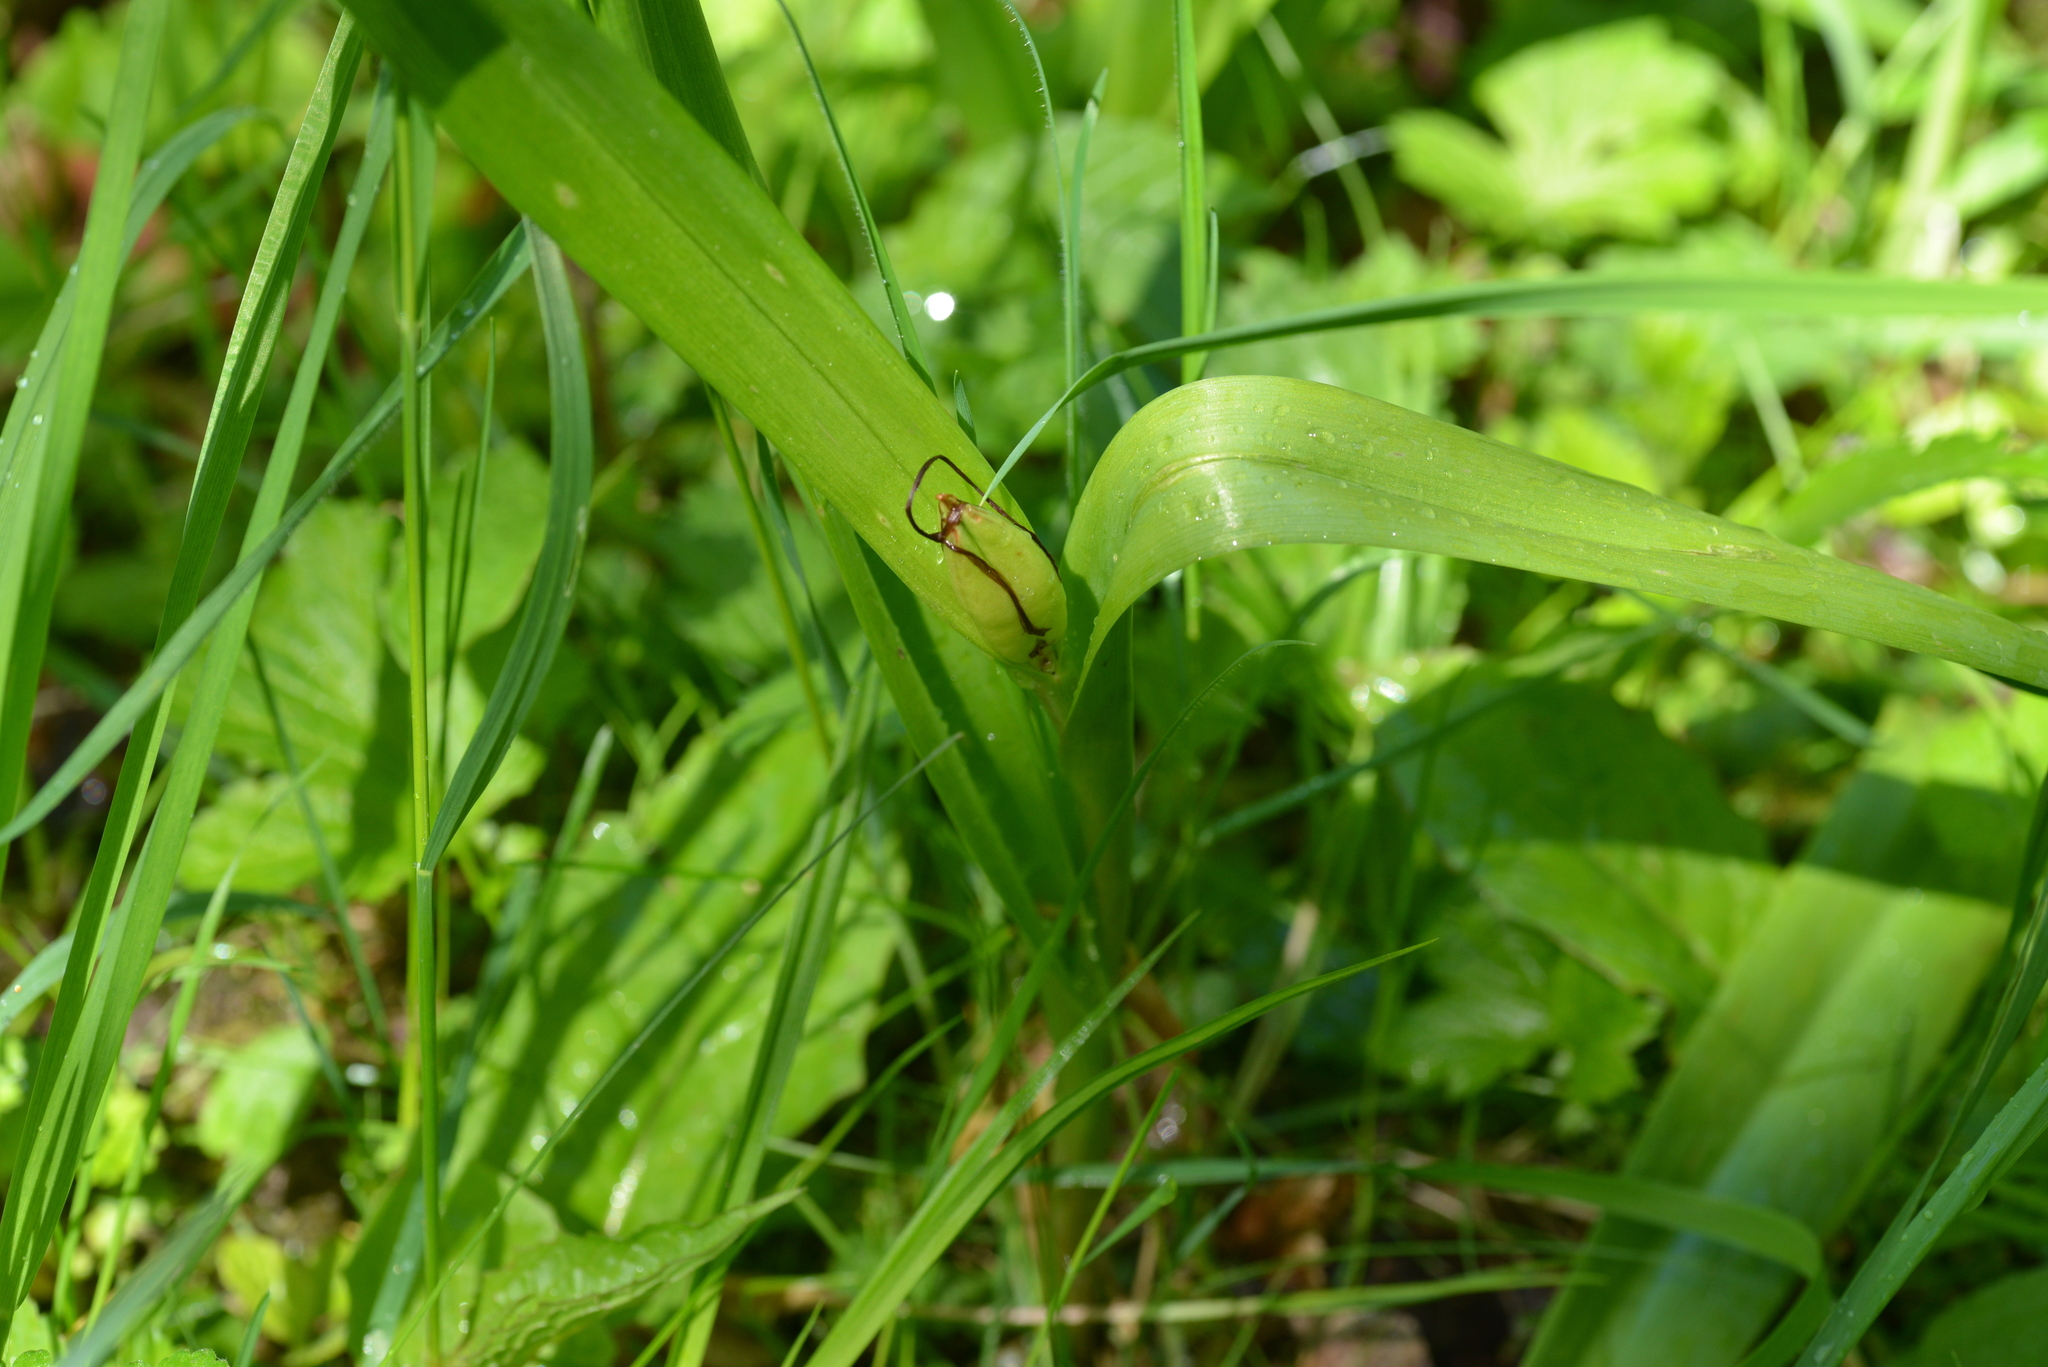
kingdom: Plantae
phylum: Tracheophyta
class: Liliopsida
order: Liliales
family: Colchicaceae
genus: Colchicum
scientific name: Colchicum autumnale
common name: Autumn crocus
